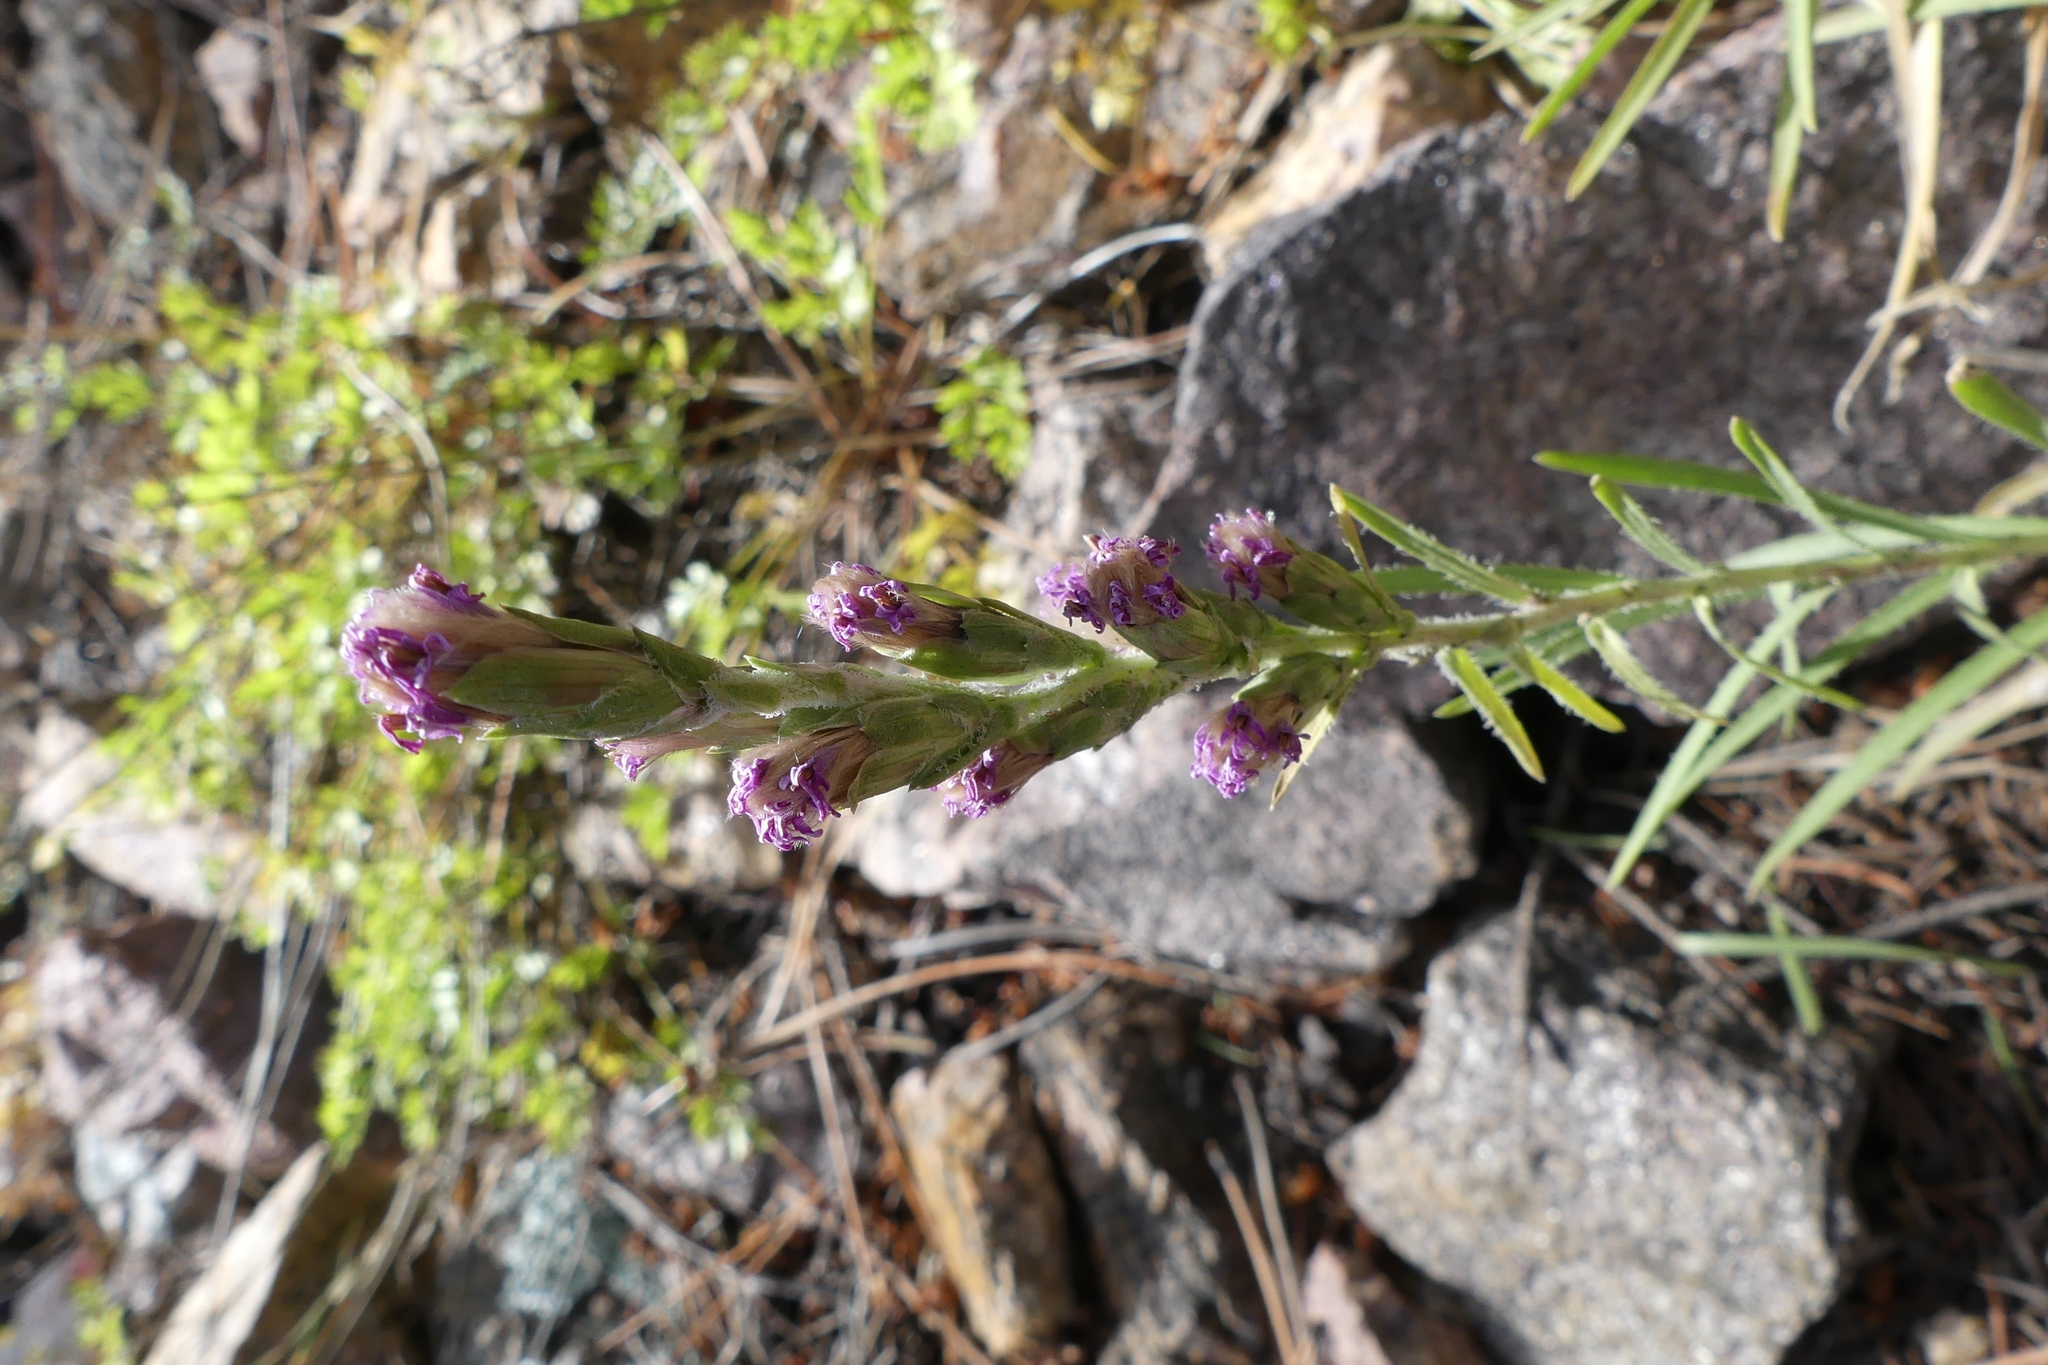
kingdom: Plantae
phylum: Tracheophyta
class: Magnoliopsida
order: Asterales
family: Asteraceae
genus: Liatris
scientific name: Liatris punctata
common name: Dotted gayfeather
